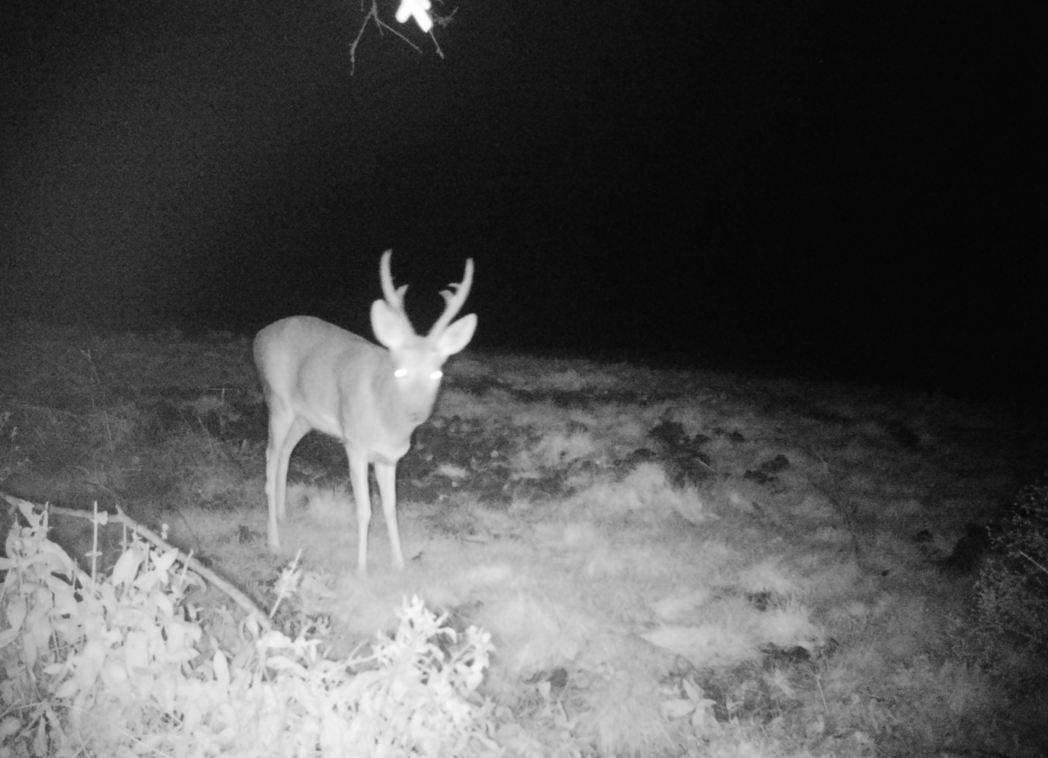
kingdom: Animalia
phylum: Chordata
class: Mammalia
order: Artiodactyla
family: Cervidae
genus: Capreolus
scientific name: Capreolus pygargus
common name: Siberian roe
